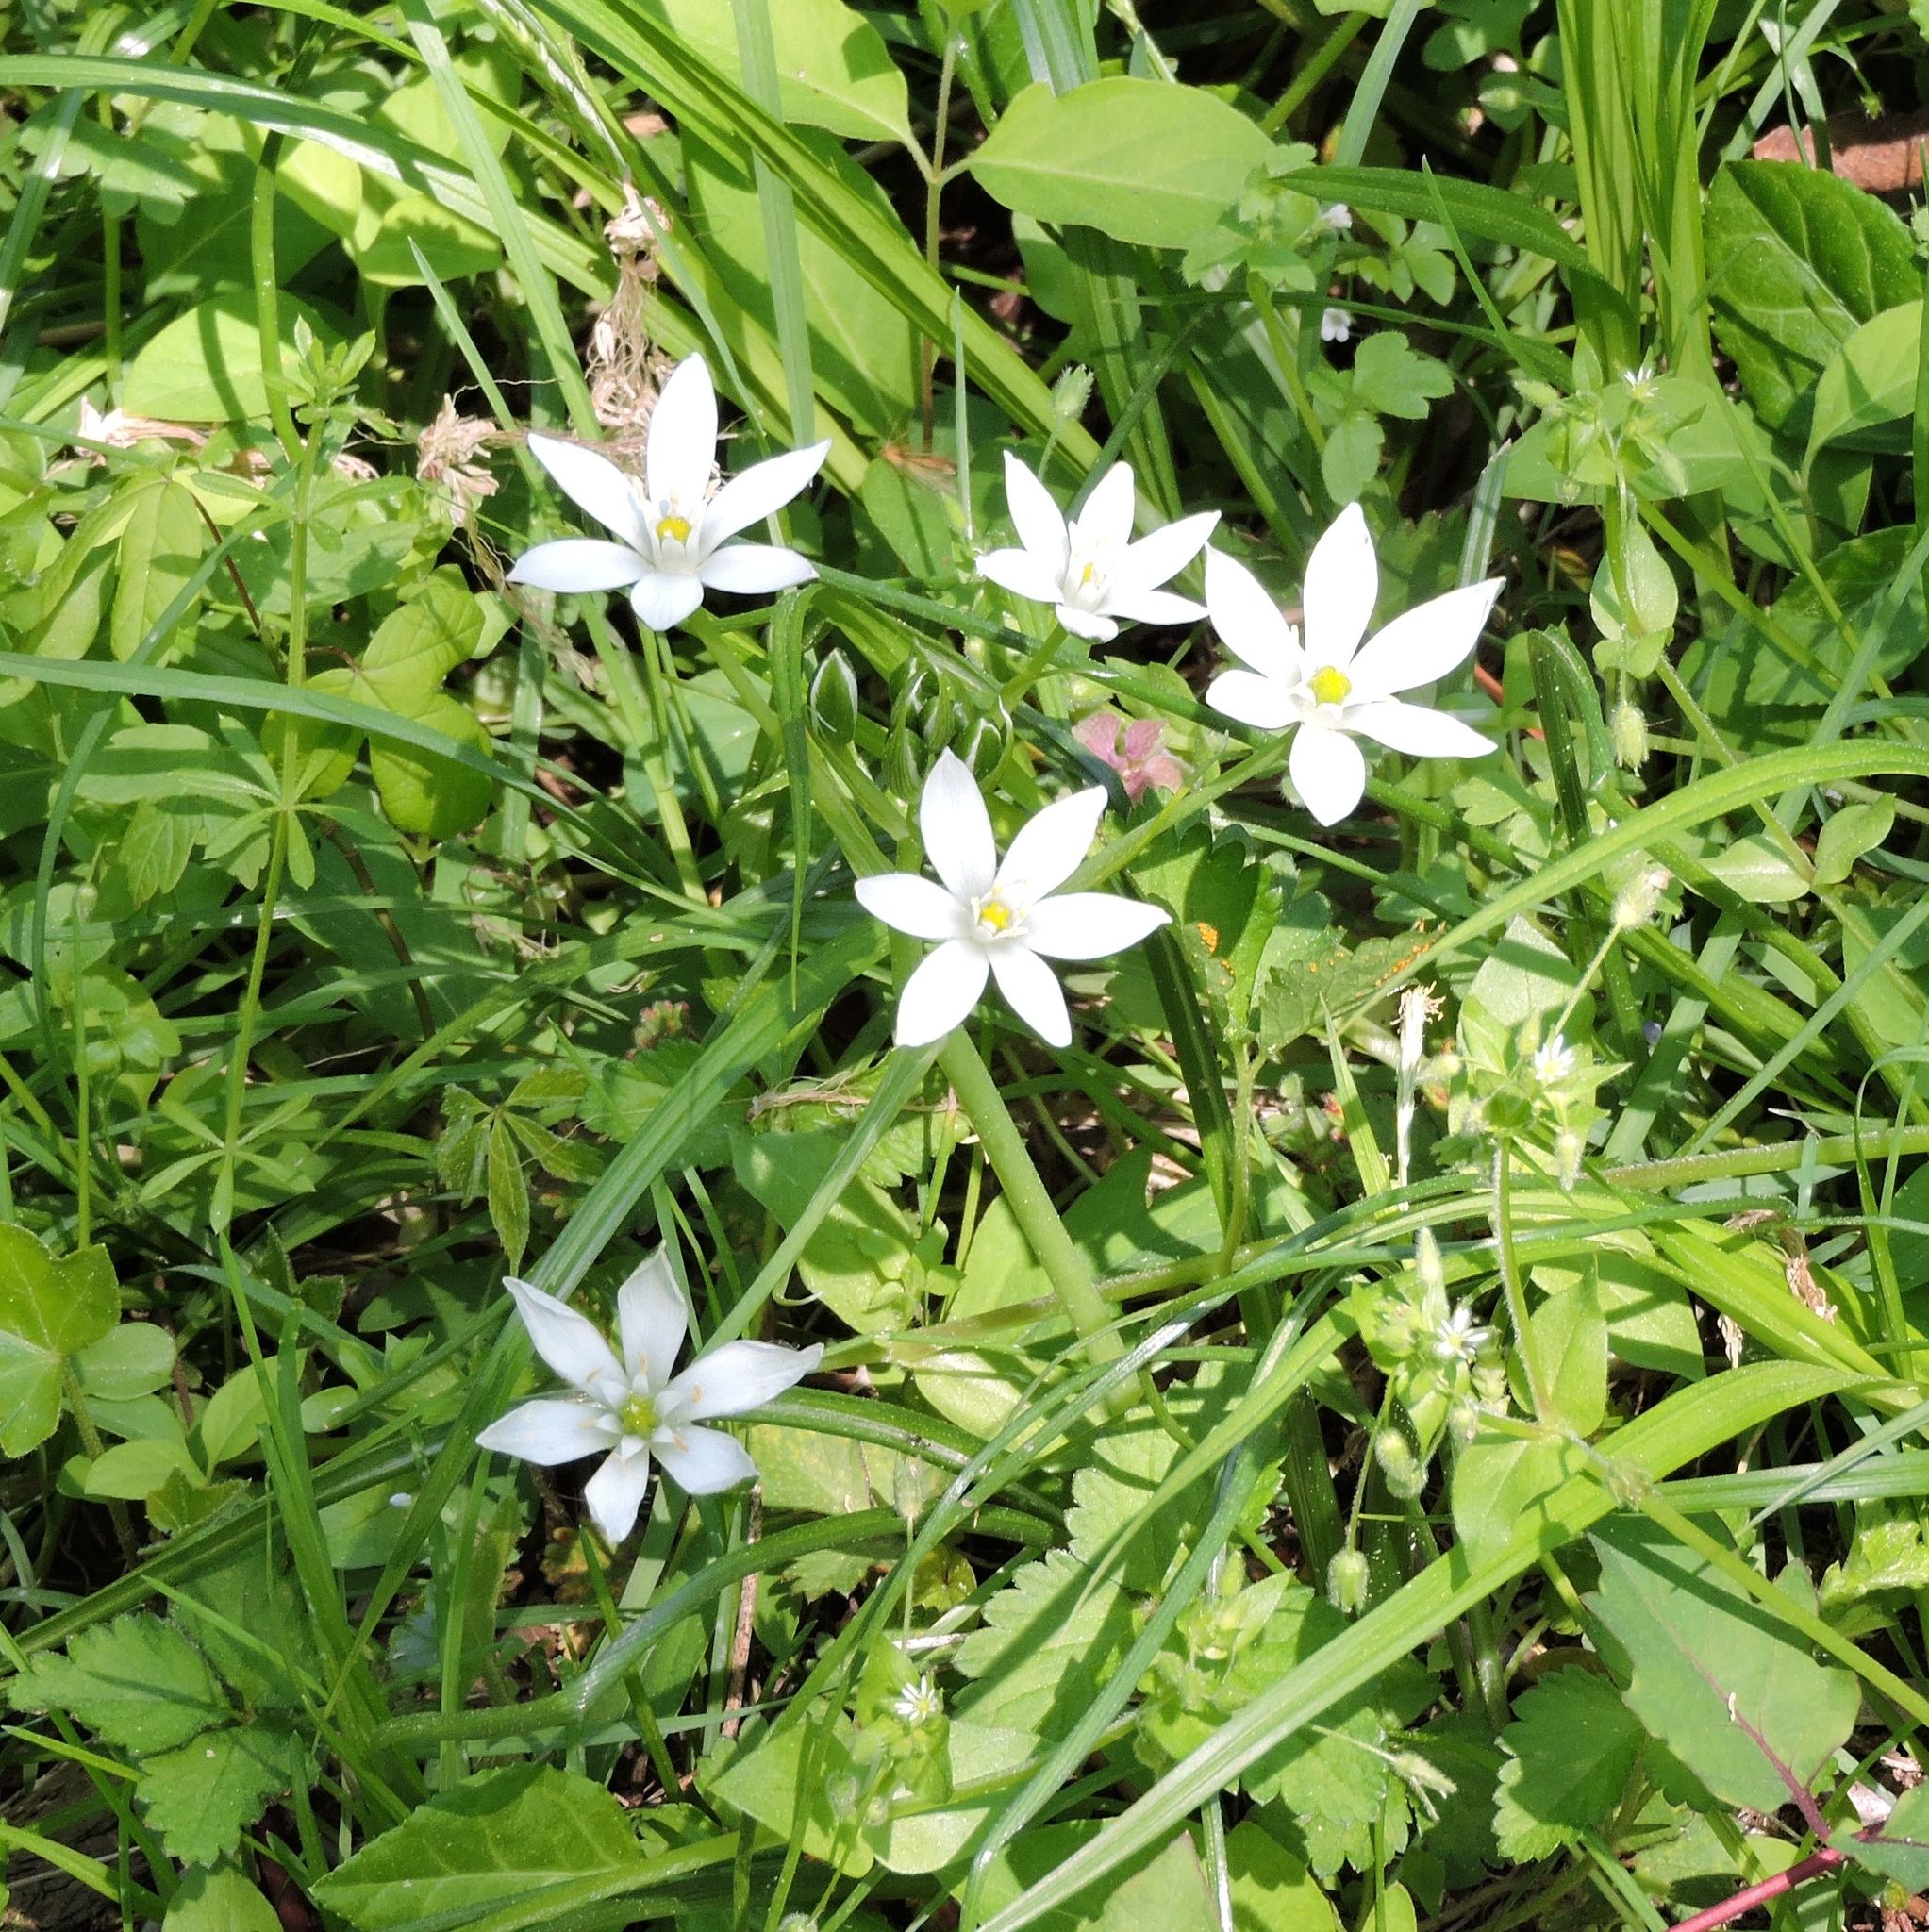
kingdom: Plantae
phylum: Tracheophyta
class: Liliopsida
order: Asparagales
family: Asparagaceae
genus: Ornithogalum
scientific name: Ornithogalum umbellatum
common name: Garden star-of-bethlehem
